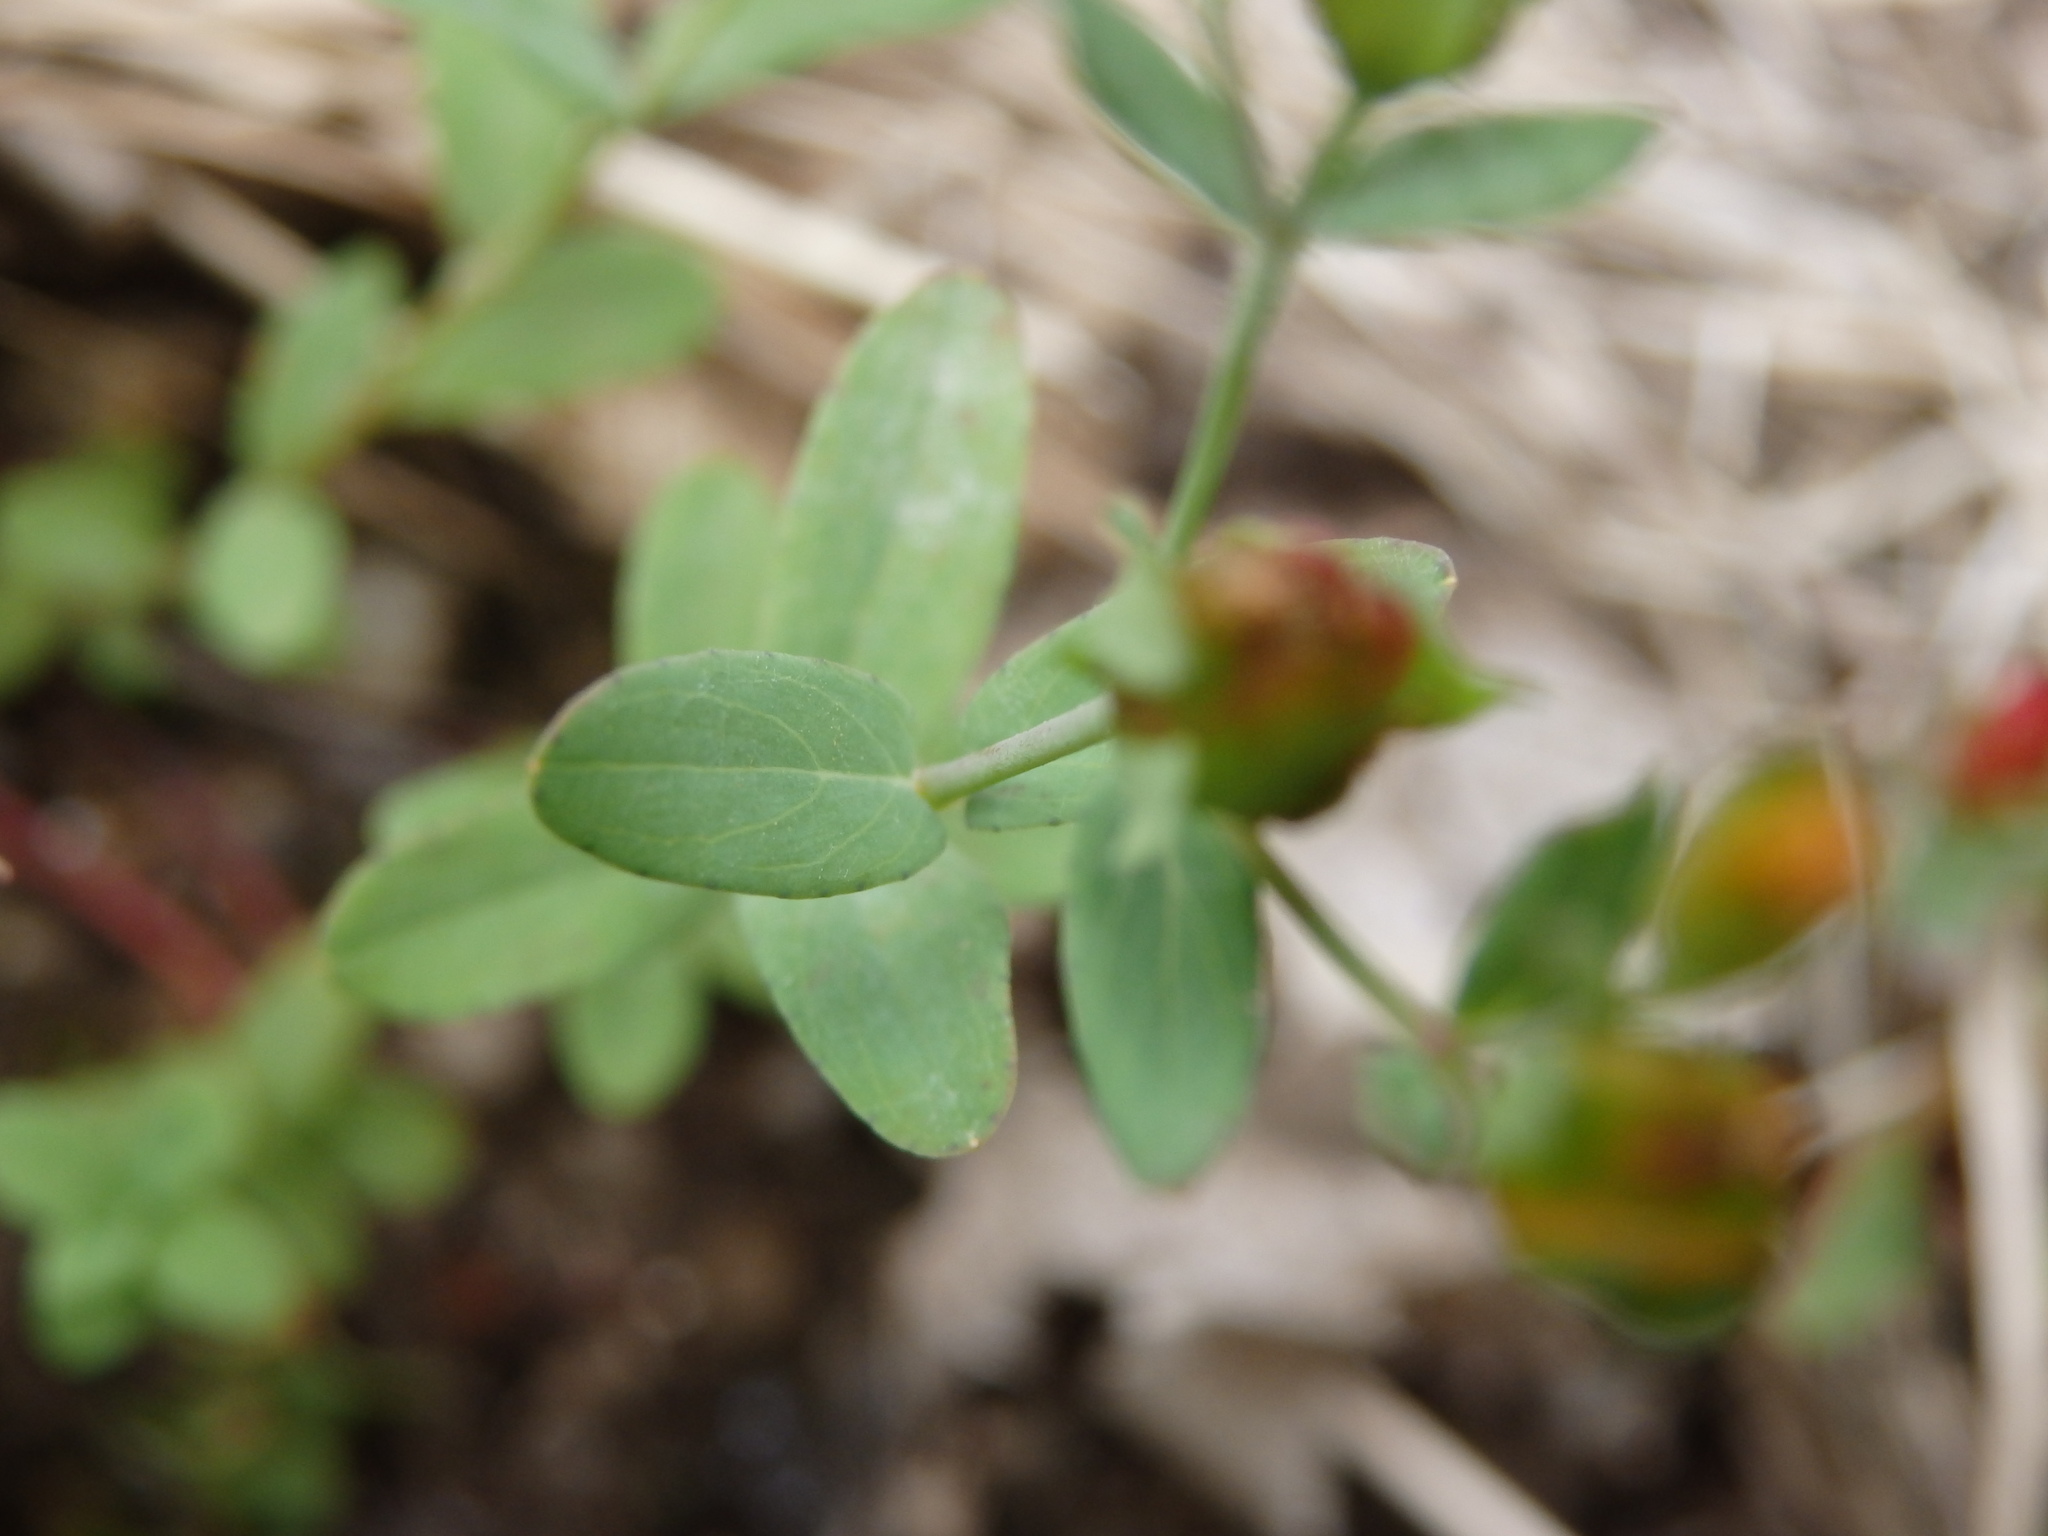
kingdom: Plantae
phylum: Tracheophyta
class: Magnoliopsida
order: Malpighiales
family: Hypericaceae
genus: Hypericum
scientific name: Hypericum humifusum
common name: Trailing st. john's-wort
